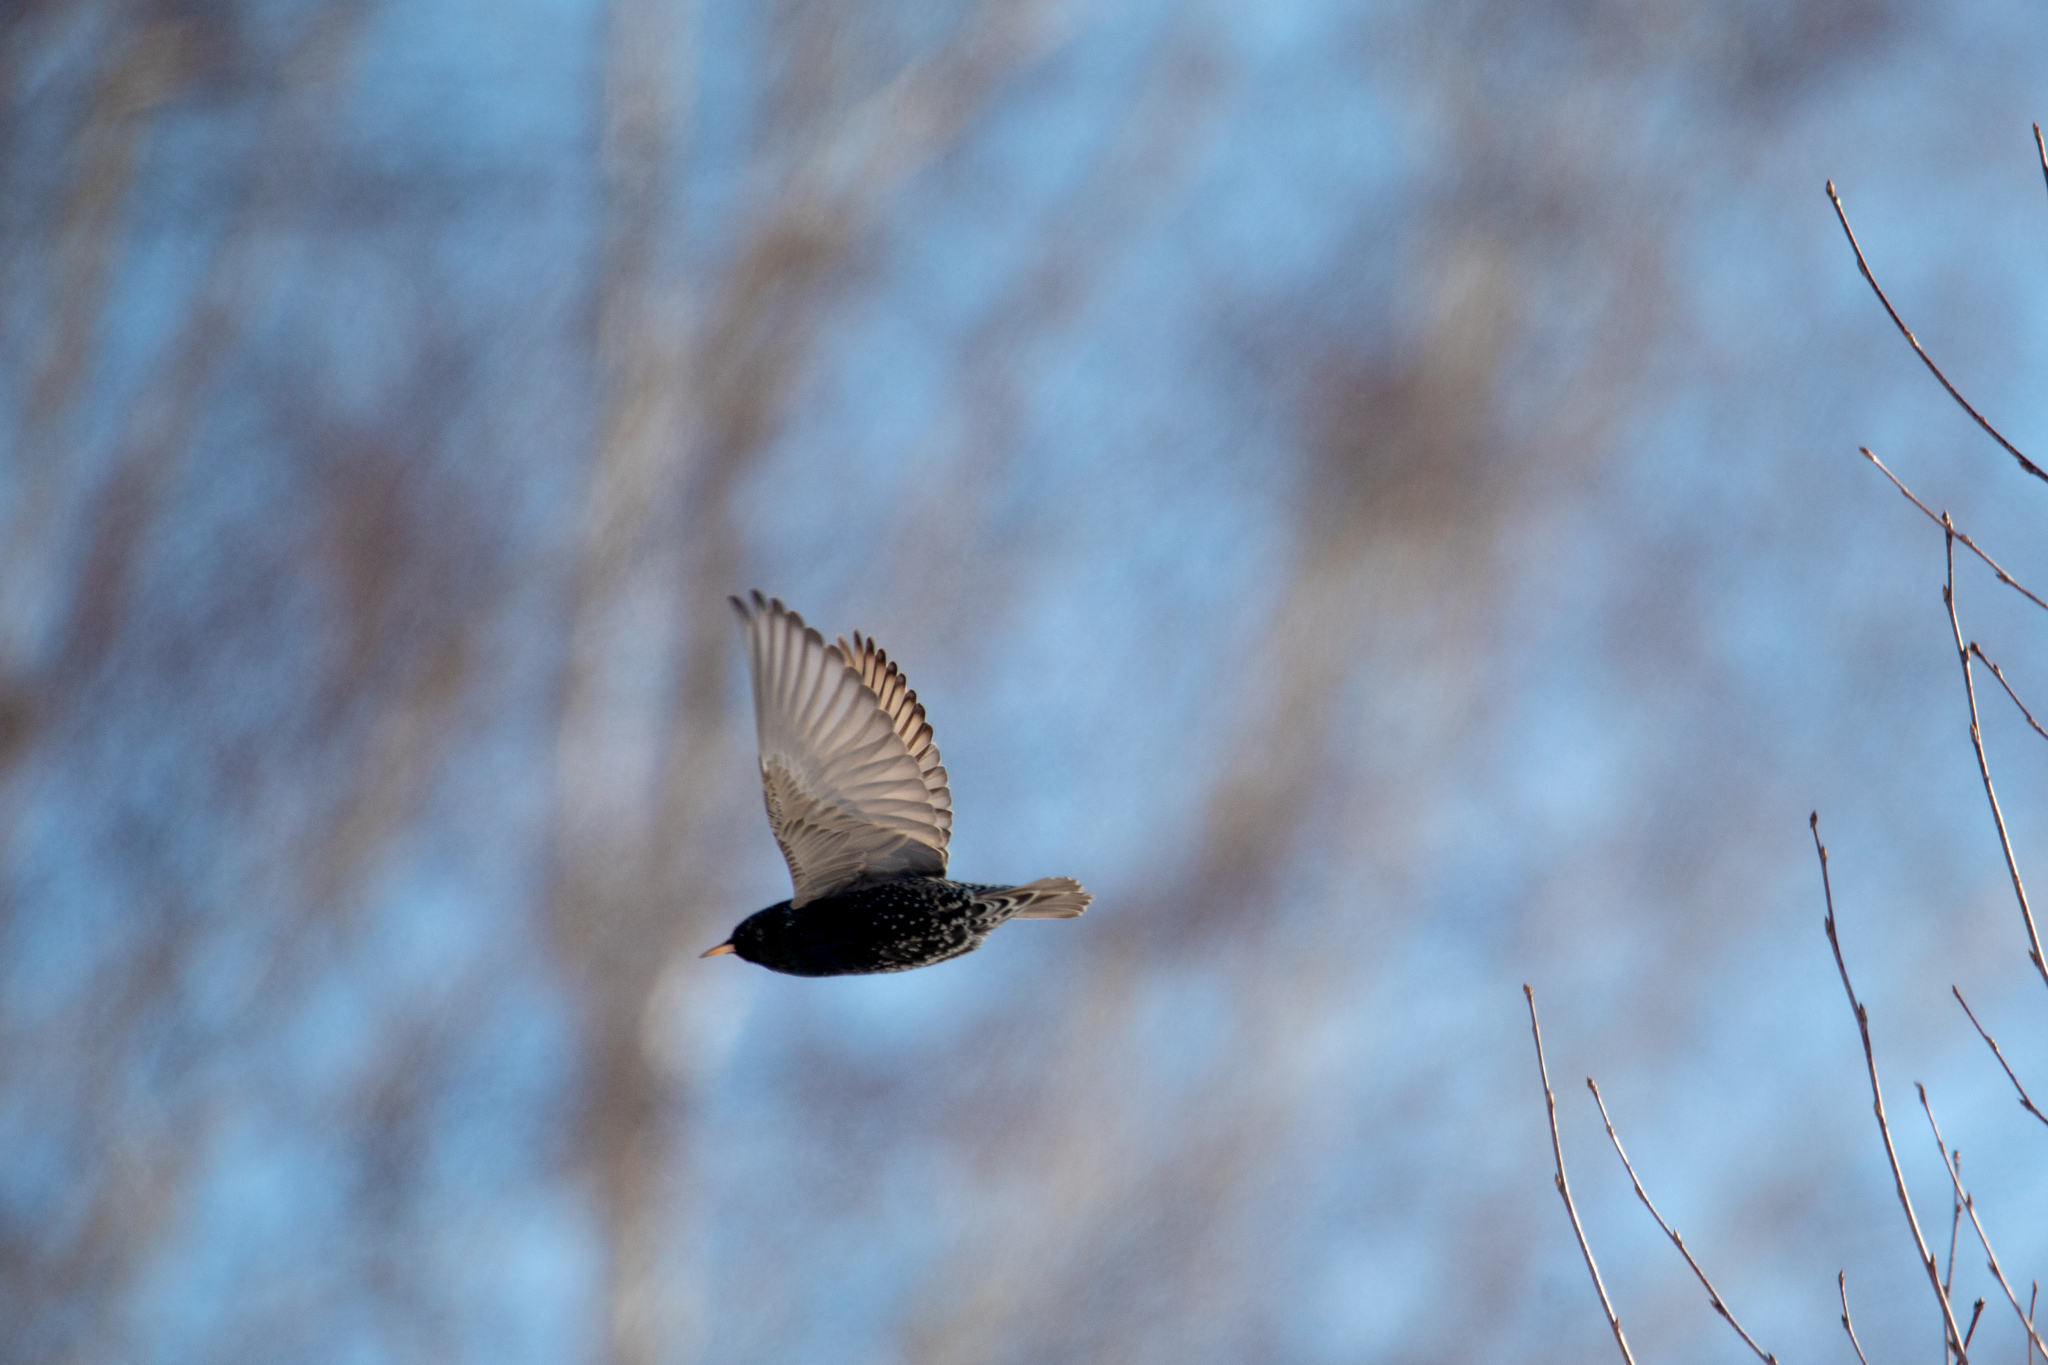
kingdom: Animalia
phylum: Chordata
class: Aves
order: Passeriformes
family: Sturnidae
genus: Sturnus
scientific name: Sturnus vulgaris
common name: Common starling
